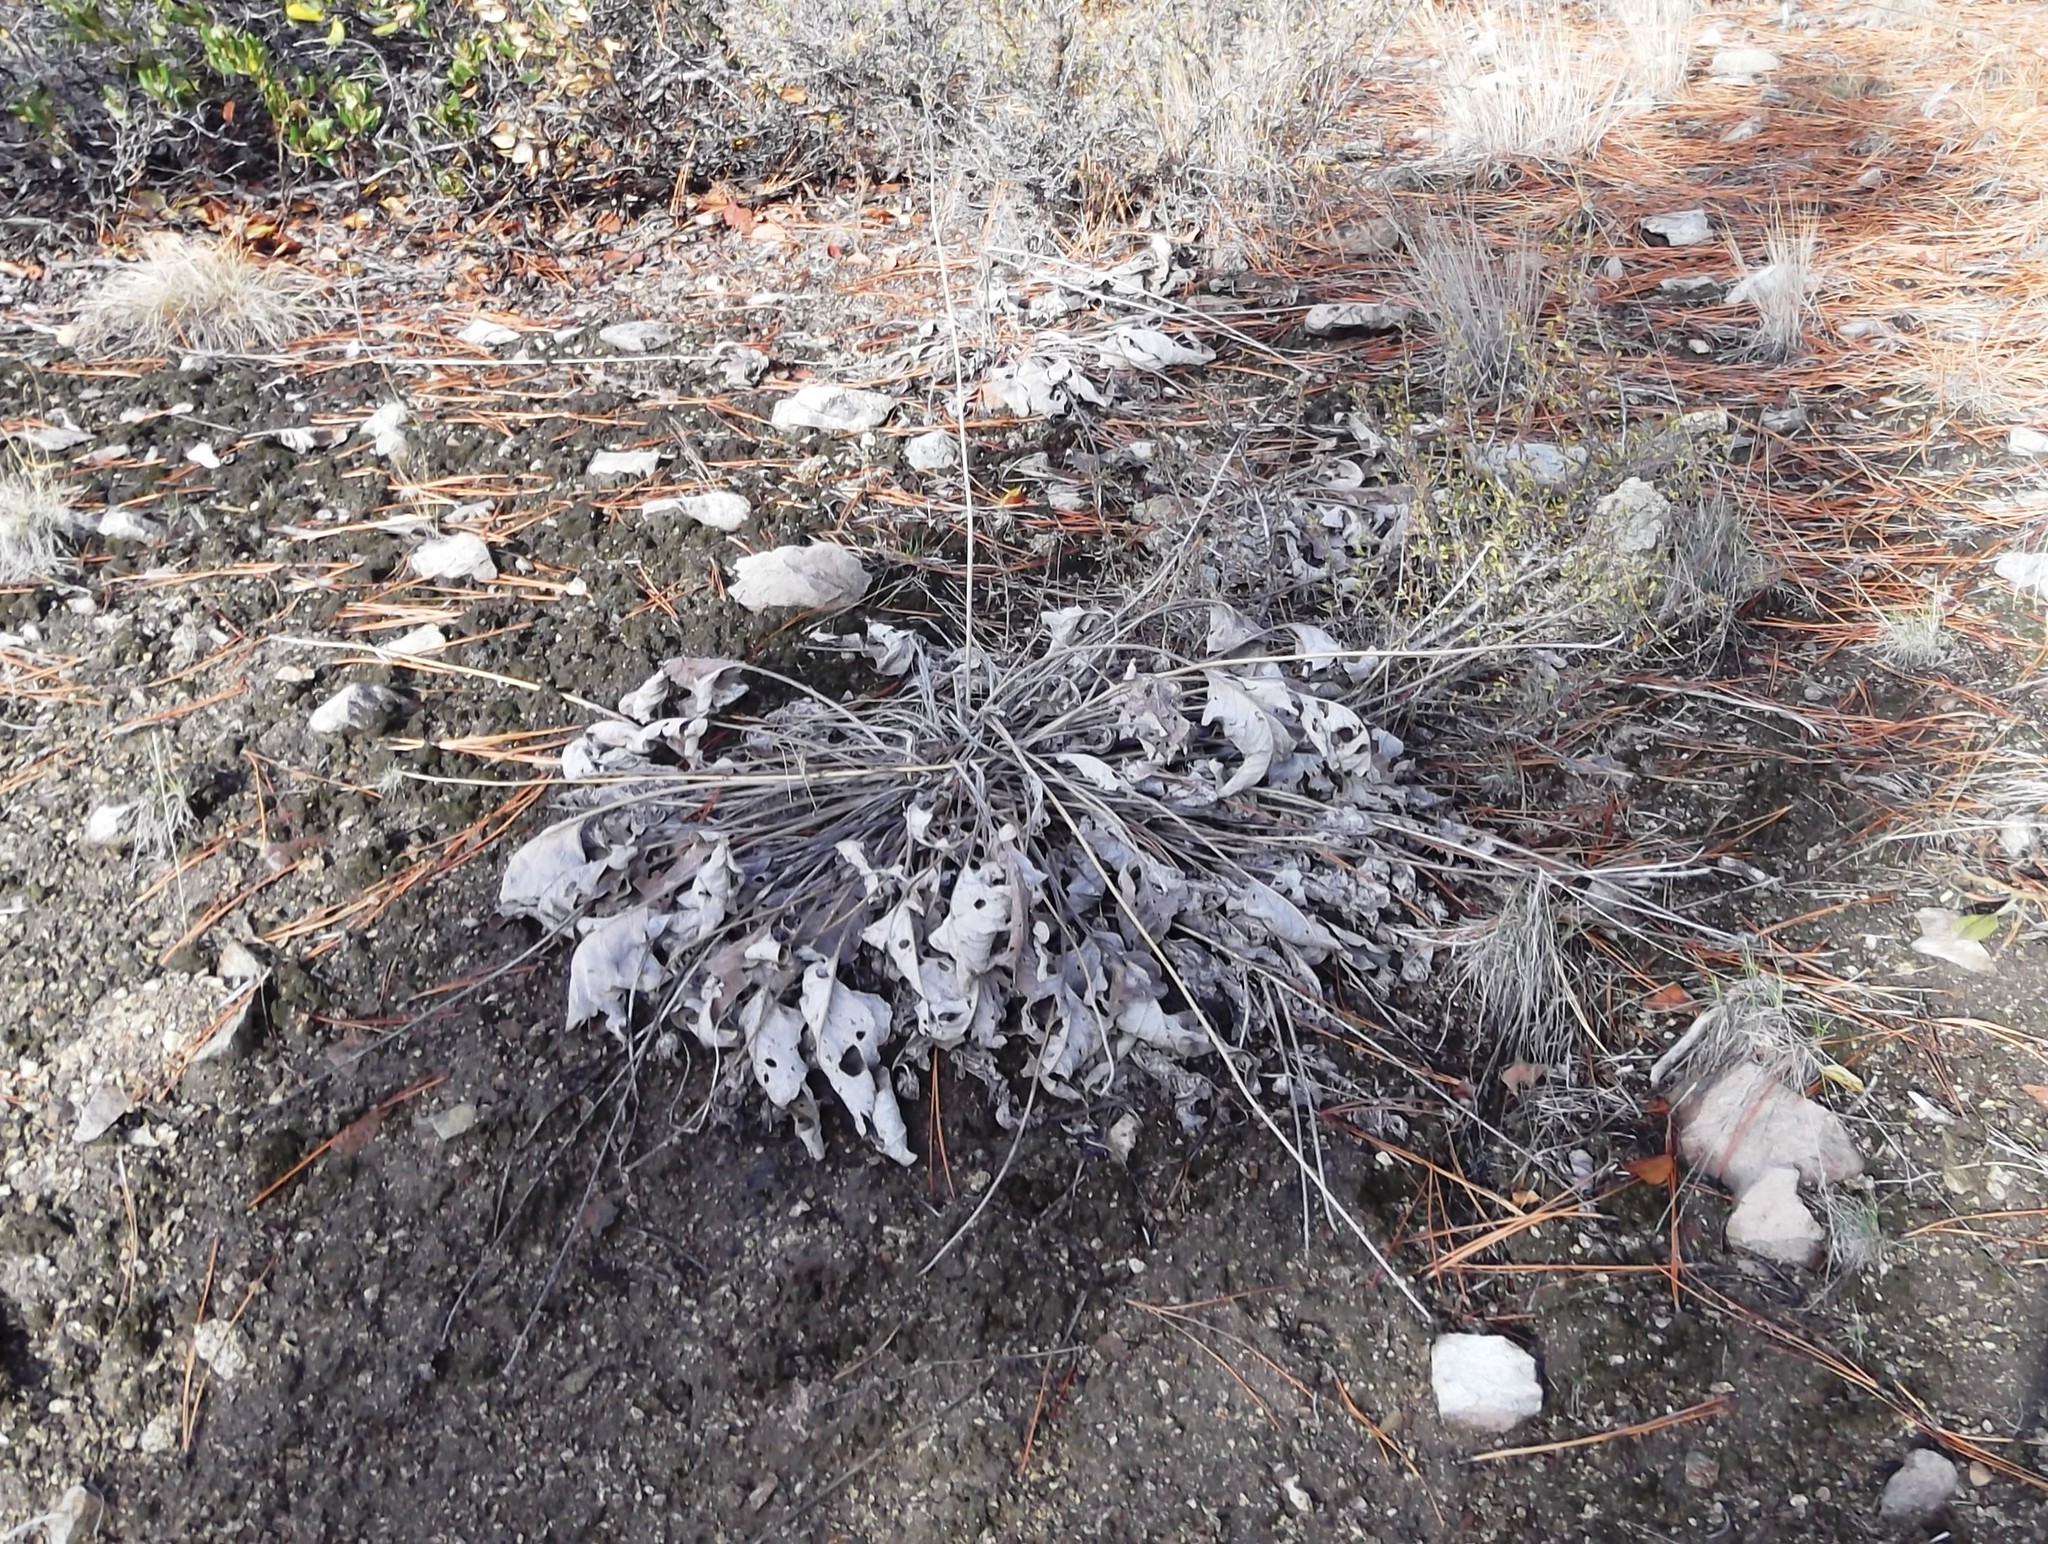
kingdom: Plantae
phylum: Tracheophyta
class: Magnoliopsida
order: Asterales
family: Asteraceae
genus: Wyethia
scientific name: Wyethia sagittata
